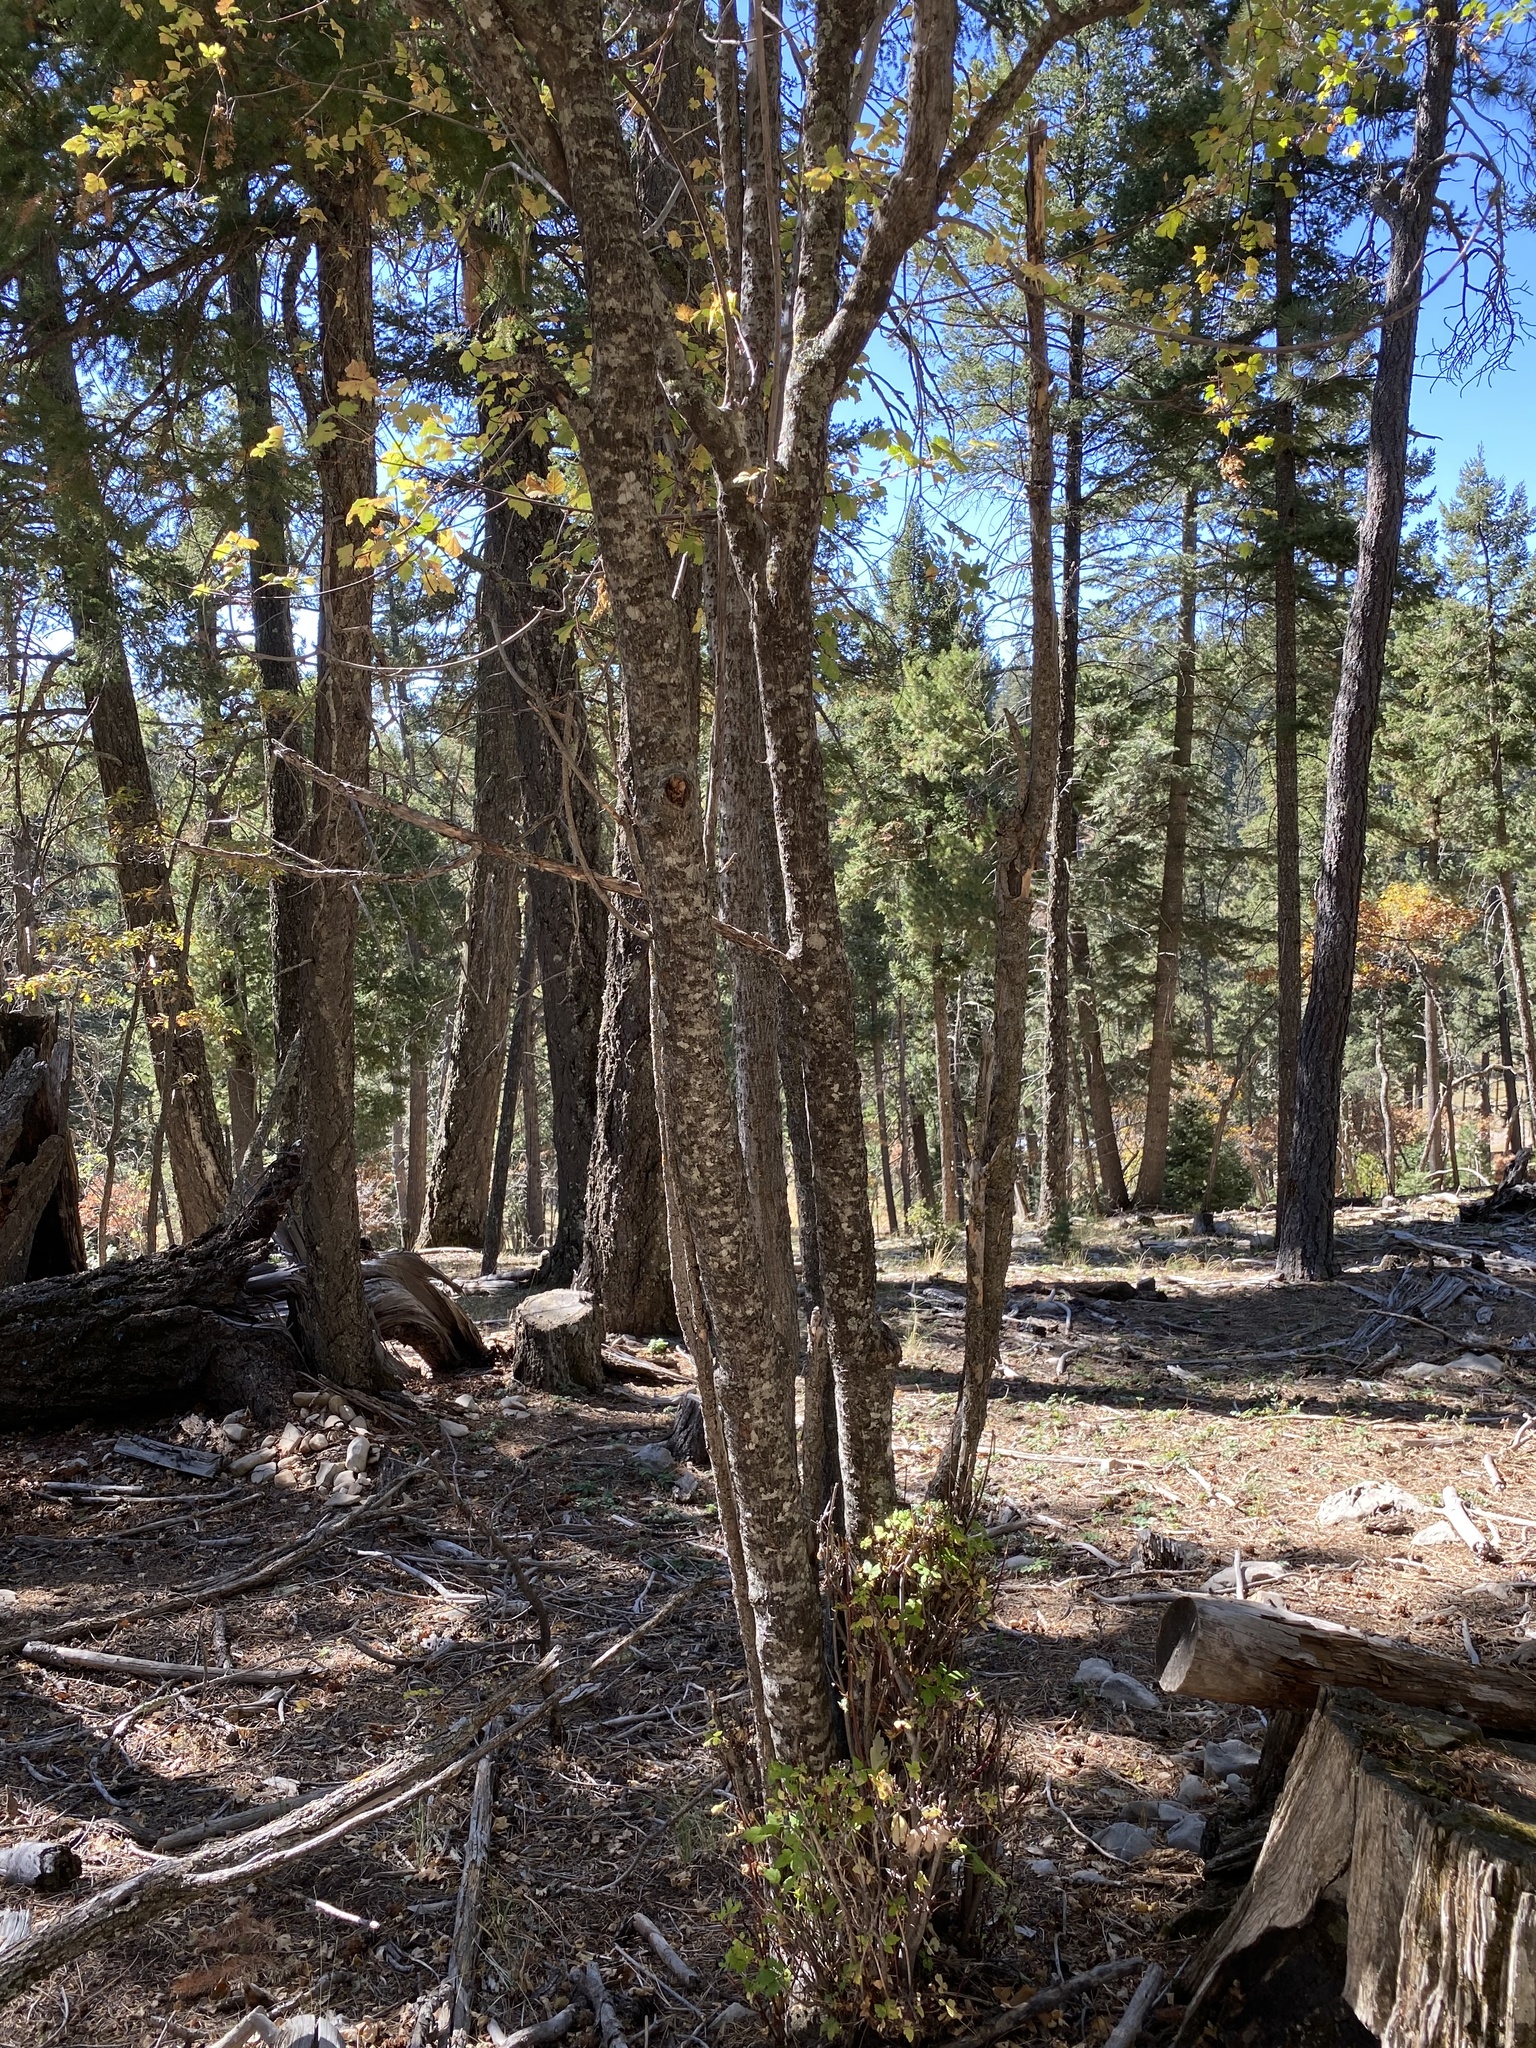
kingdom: Plantae
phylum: Tracheophyta
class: Magnoliopsida
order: Sapindales
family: Sapindaceae
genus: Acer
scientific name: Acer negundo
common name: Ashleaf maple
